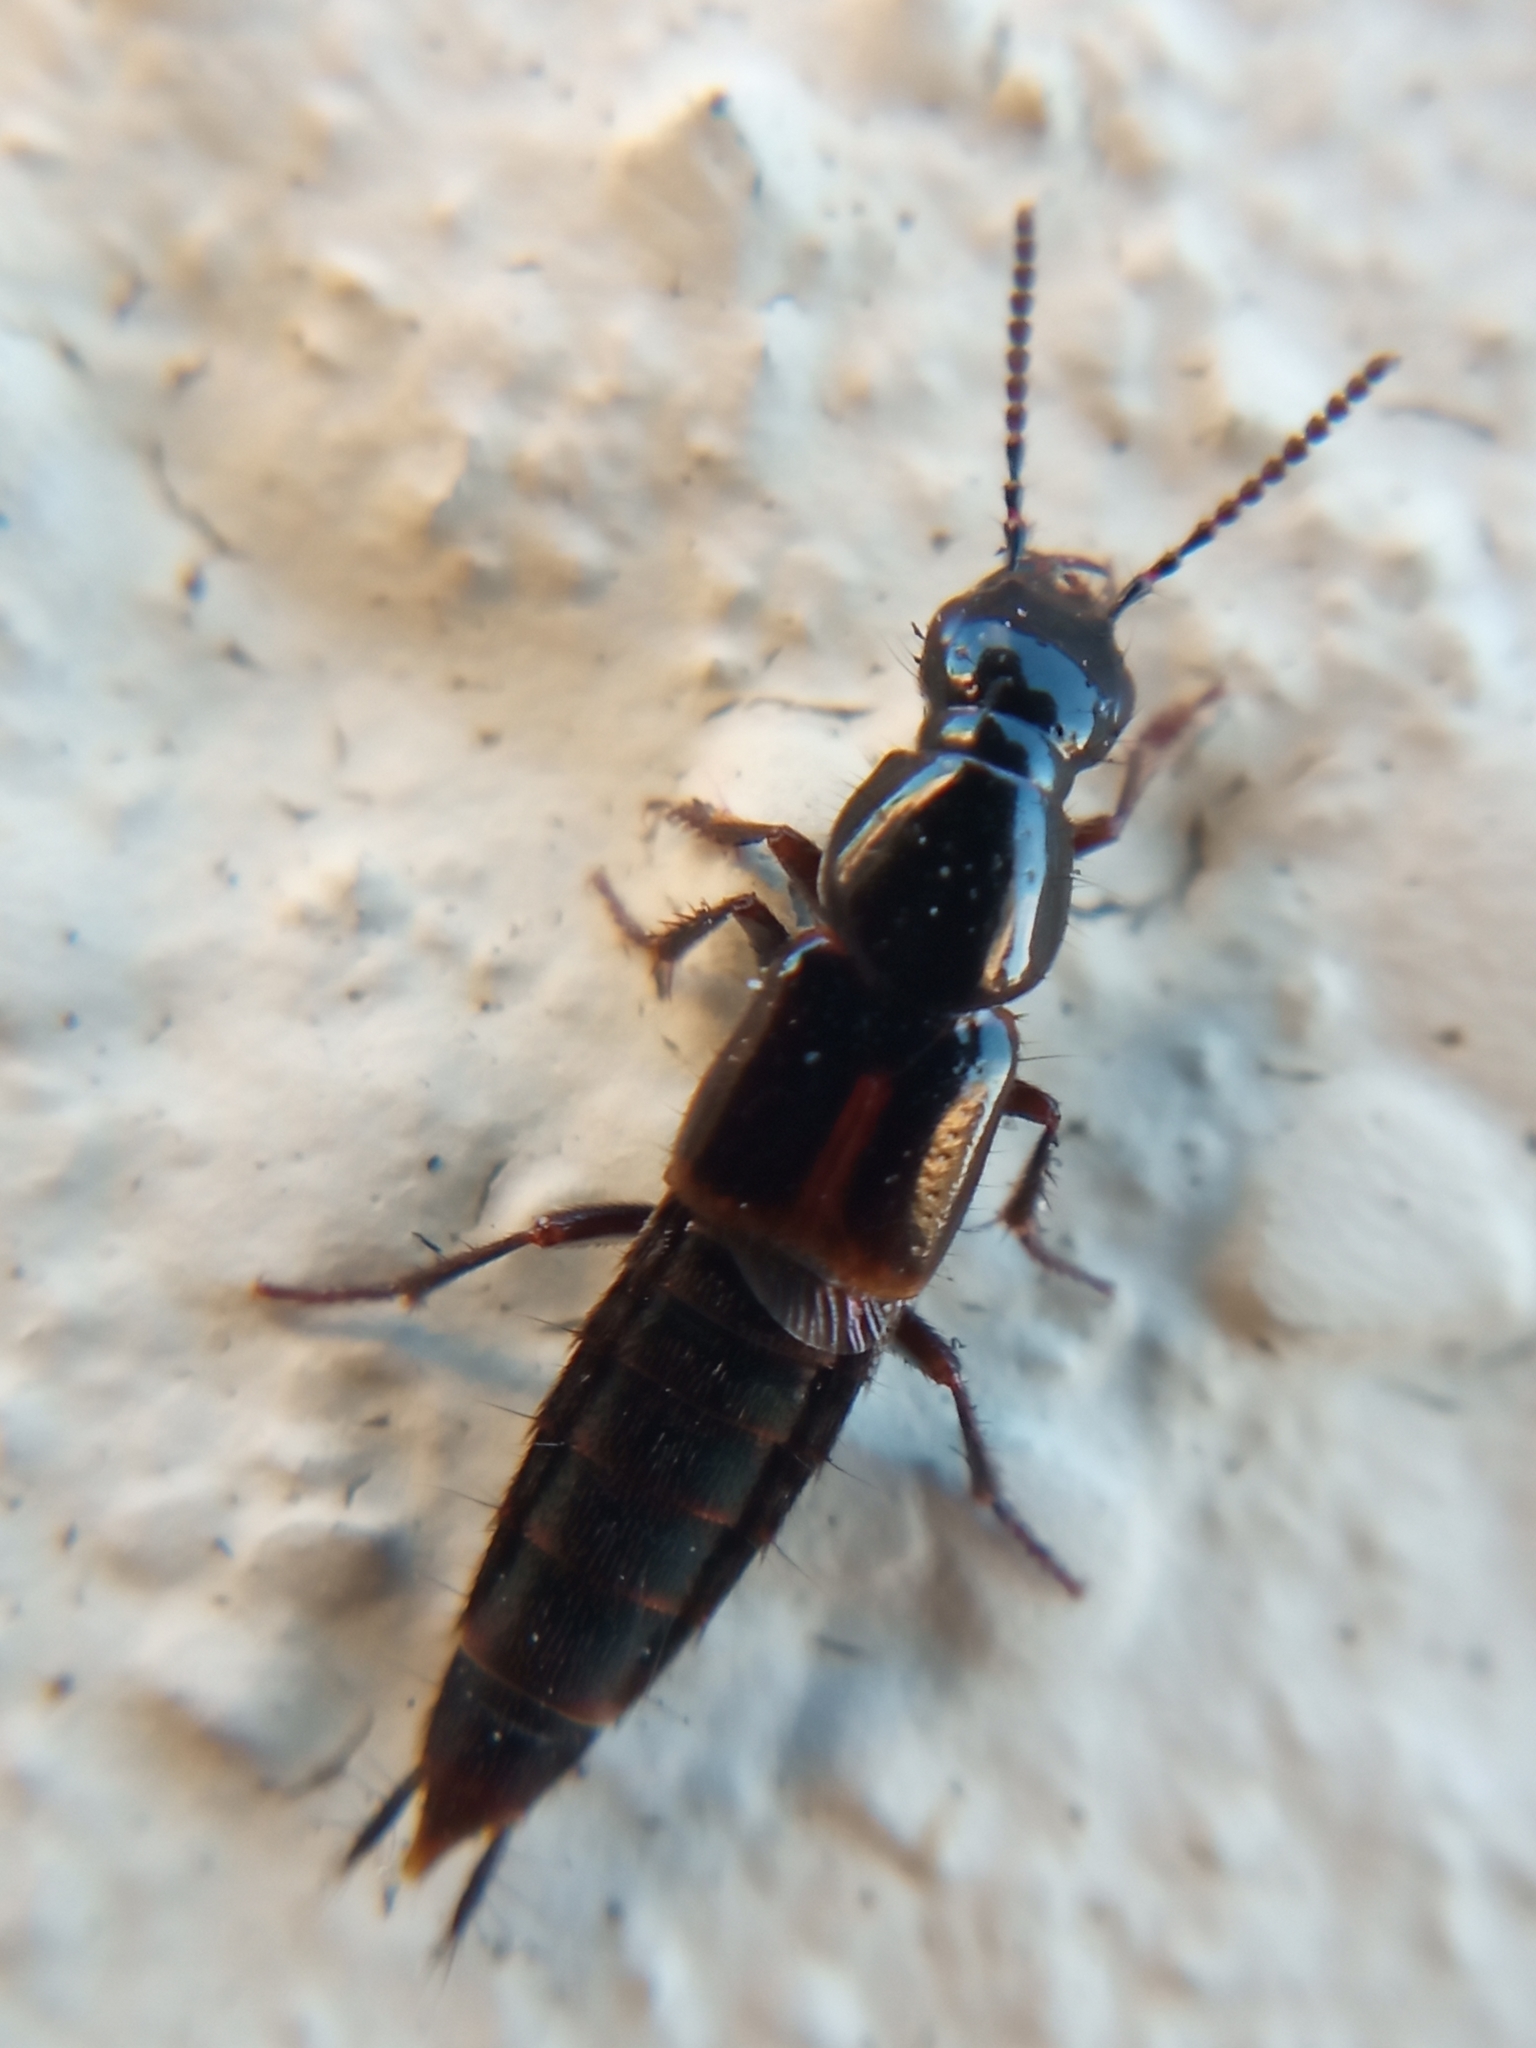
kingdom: Animalia
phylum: Arthropoda
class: Insecta
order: Coleoptera
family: Staphylinidae
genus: Quedius
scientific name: Quedius cinctus
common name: Large rove beetle
